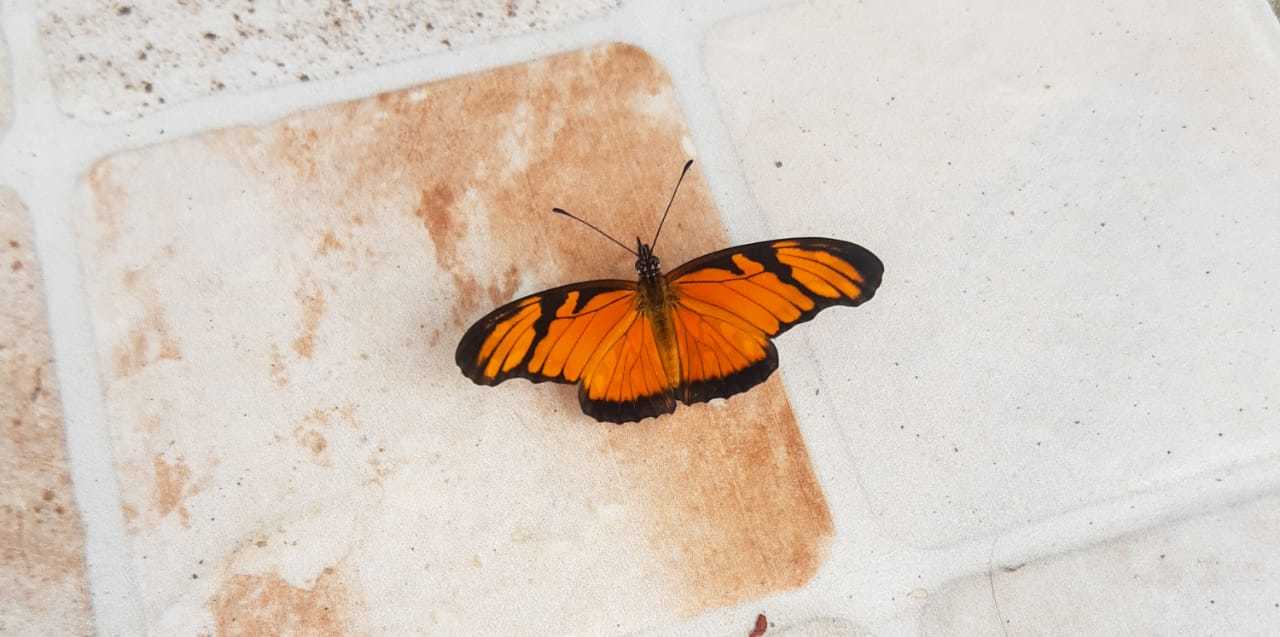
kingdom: Animalia
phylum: Arthropoda
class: Insecta
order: Lepidoptera
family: Nymphalidae
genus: Dione
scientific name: Dione juno
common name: Juno silverspot
